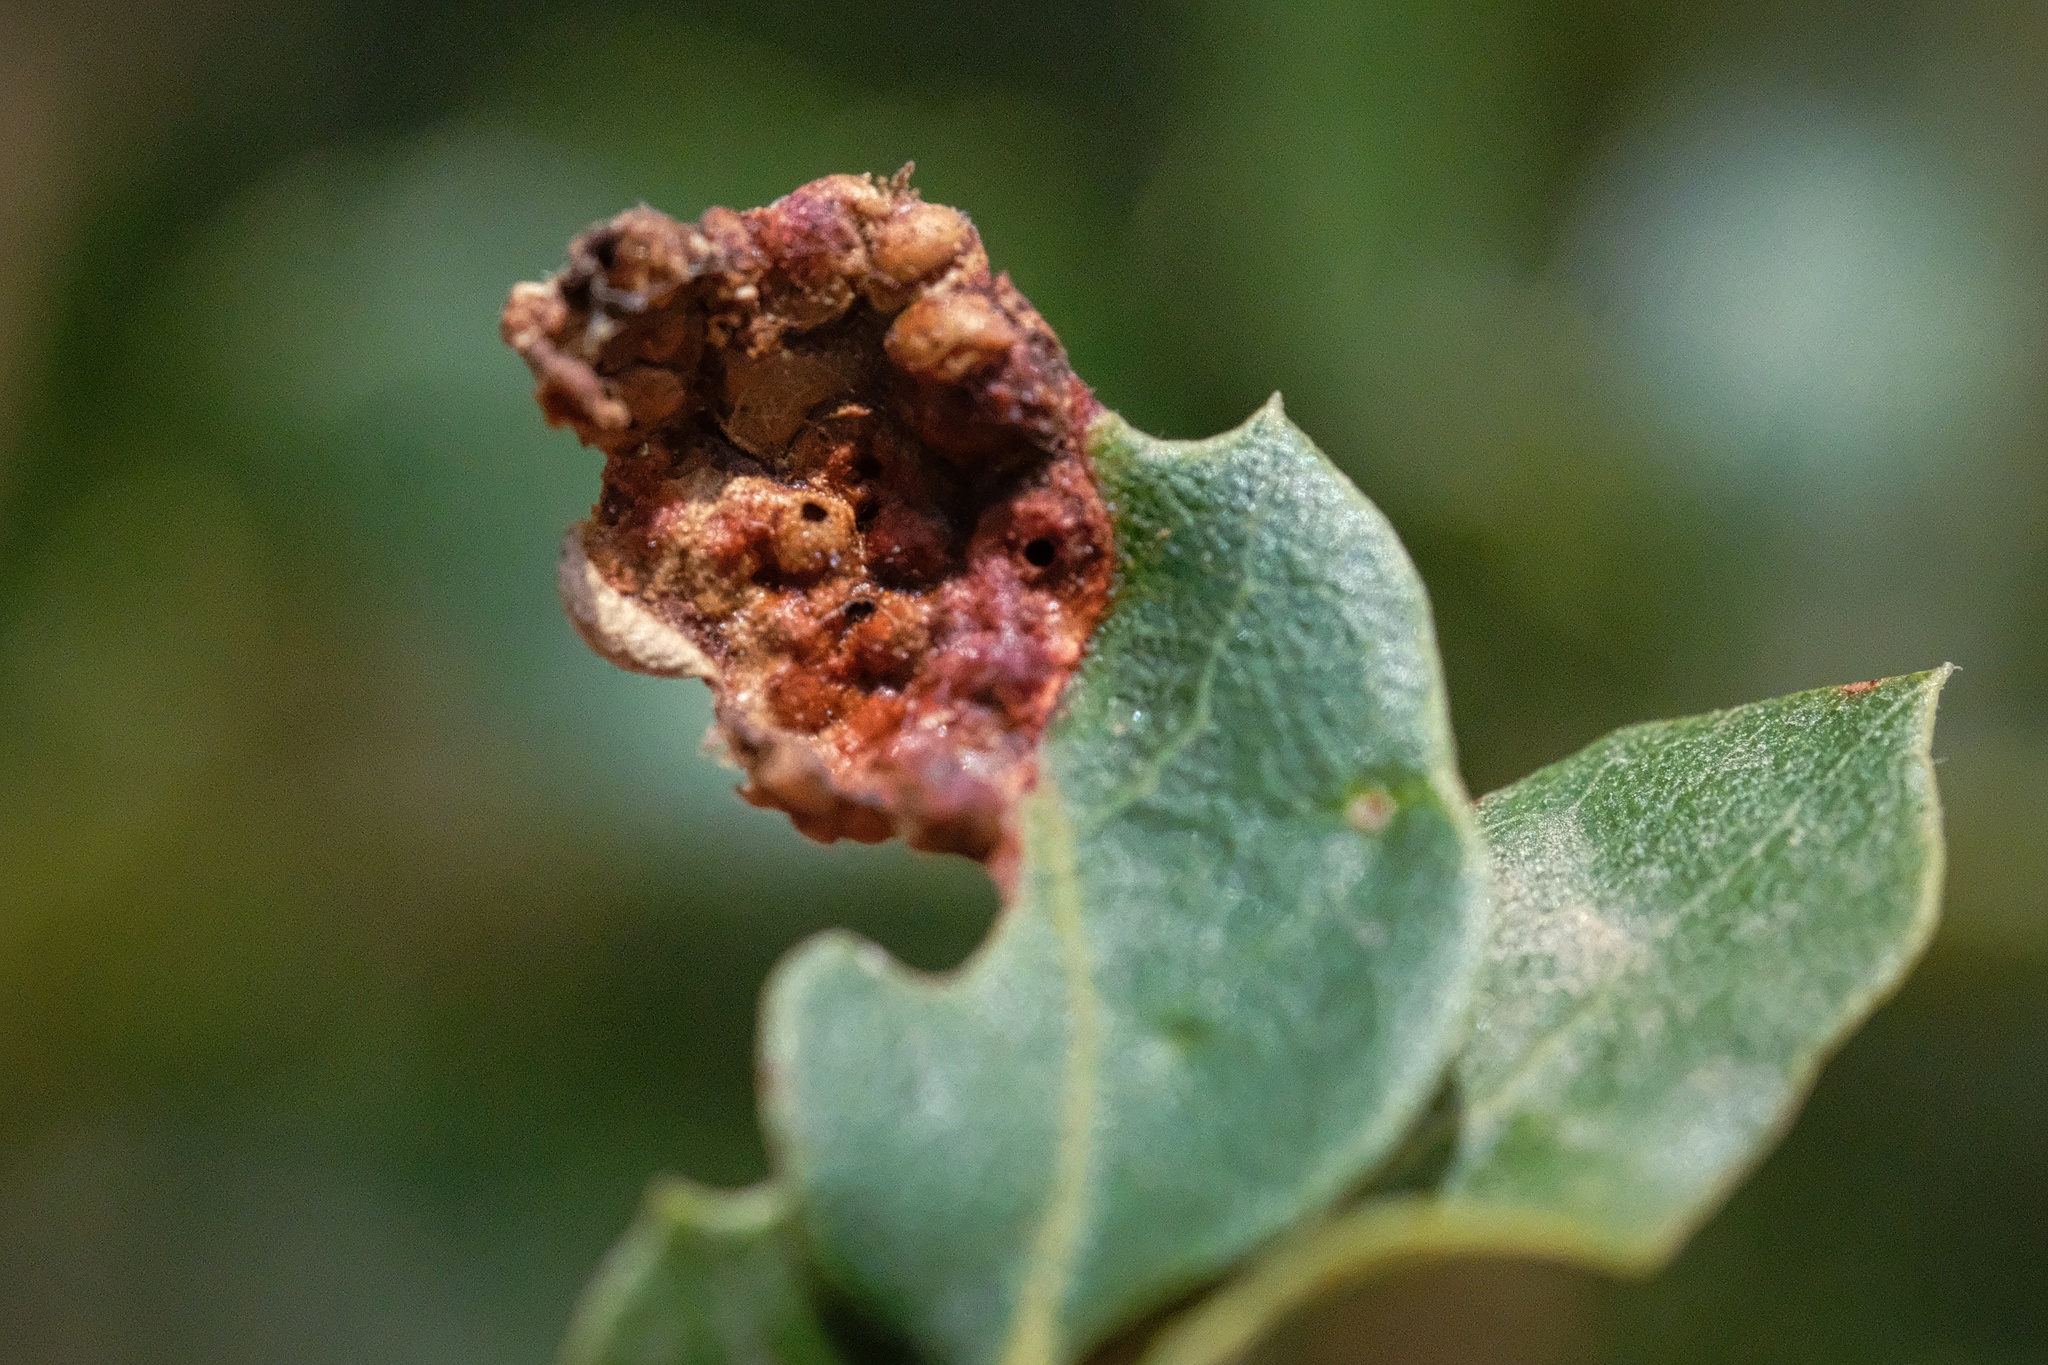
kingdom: Animalia
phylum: Arthropoda
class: Insecta
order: Hymenoptera
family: Cynipidae
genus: Neuroterus
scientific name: Neuroterus saltarius
